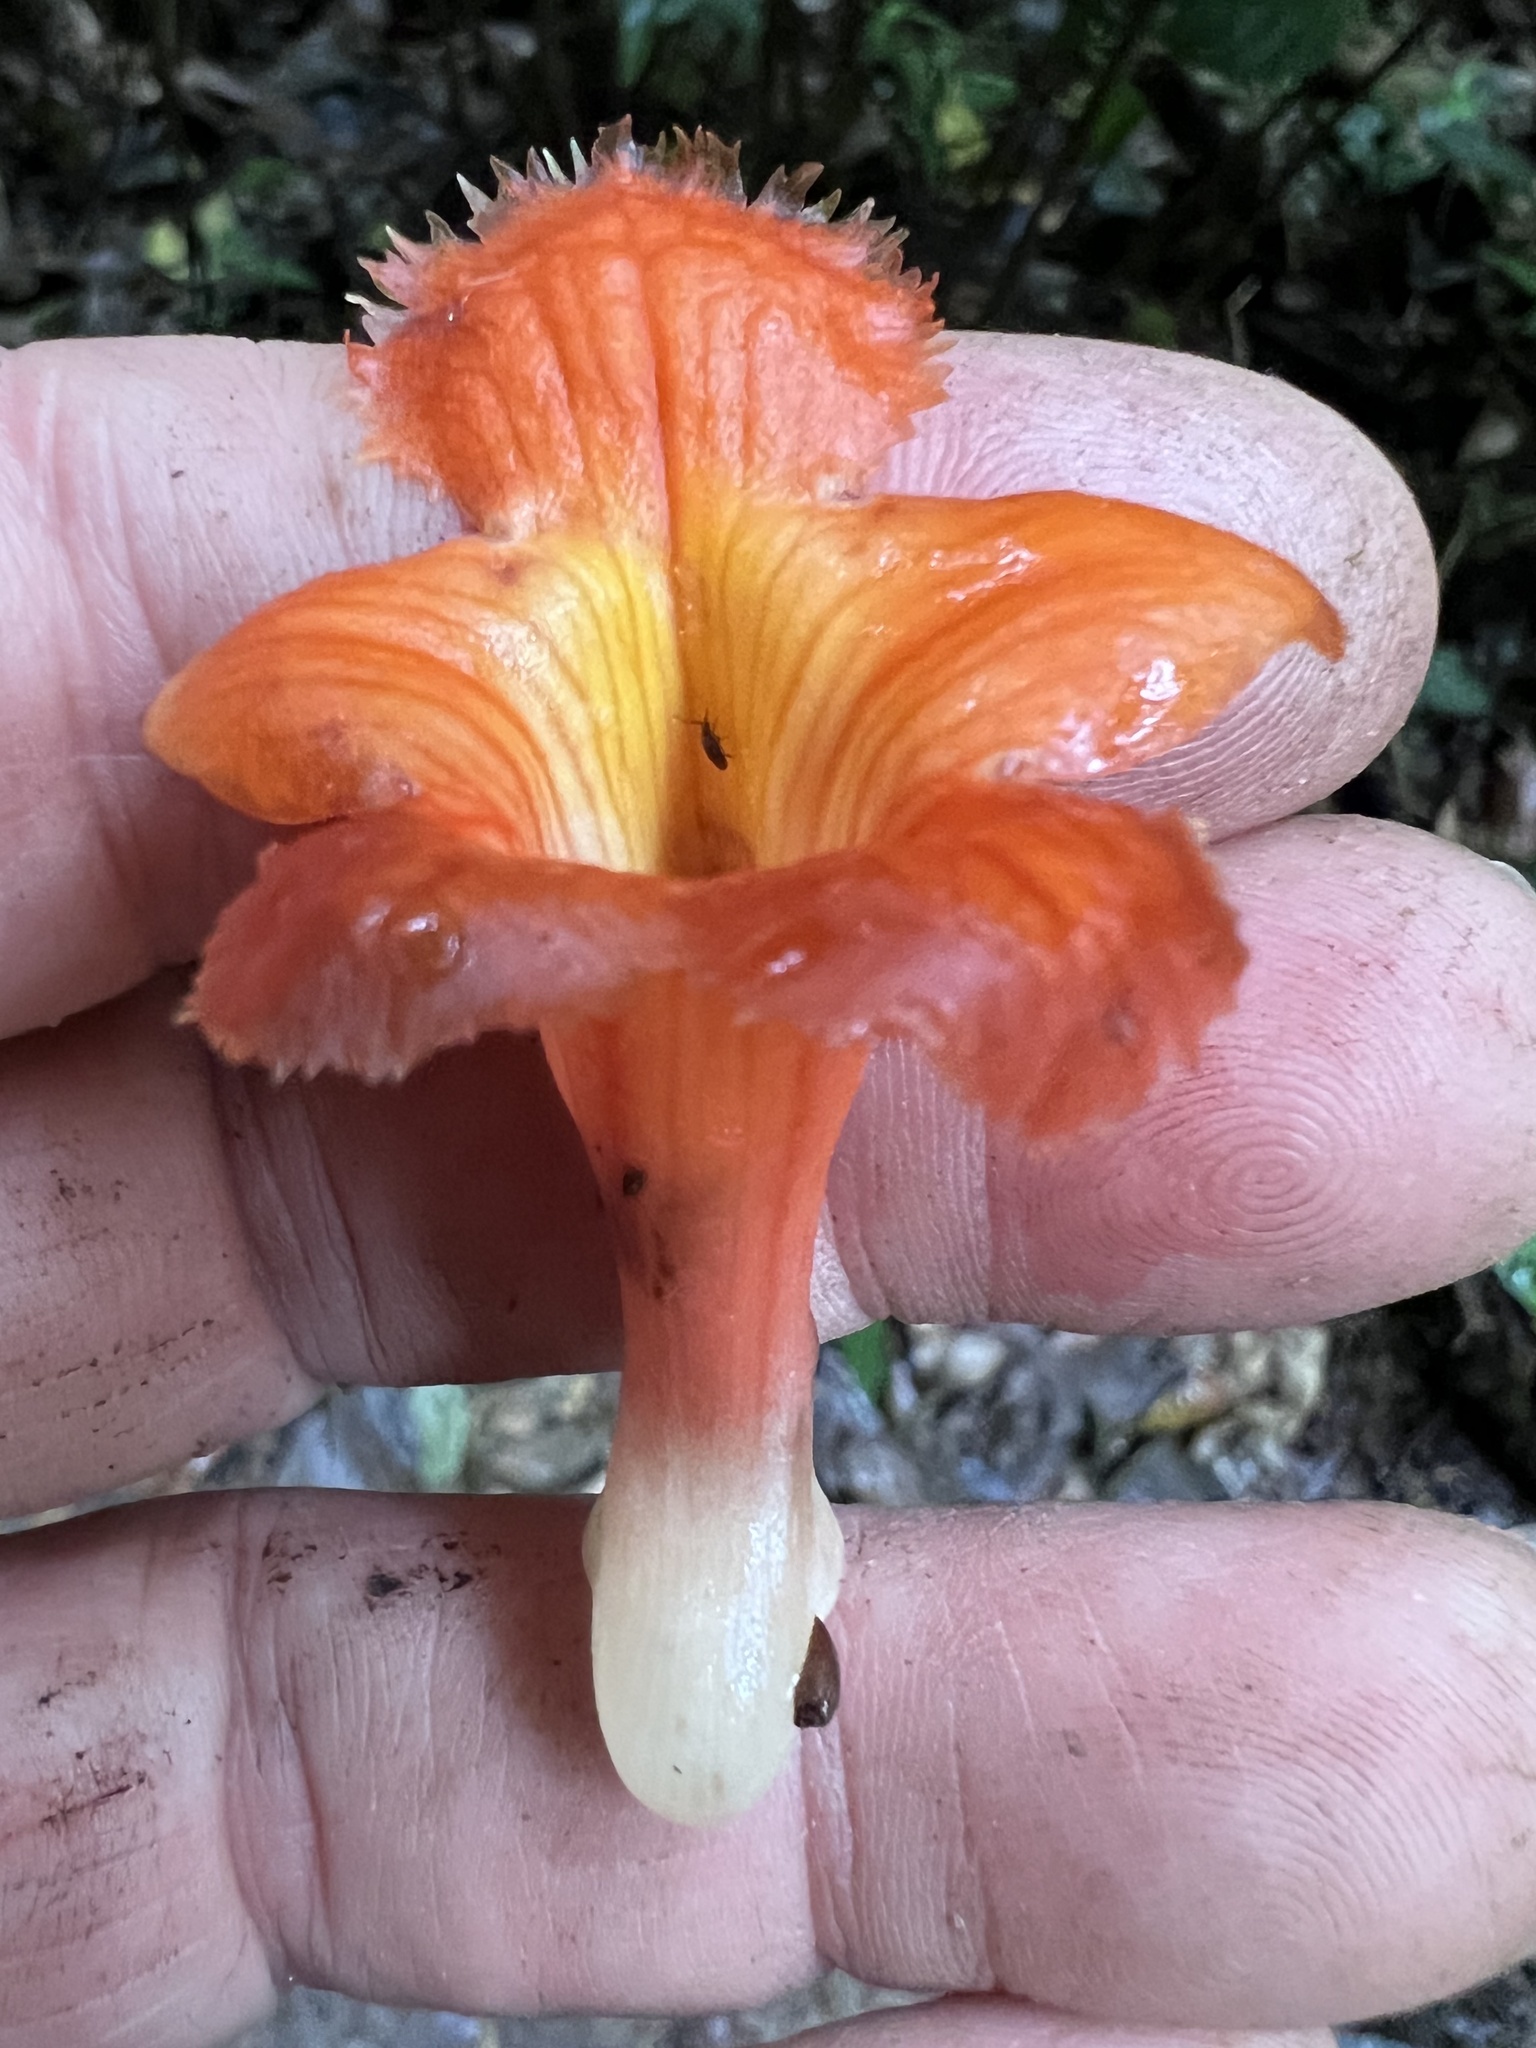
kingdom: Plantae
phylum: Tracheophyta
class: Magnoliopsida
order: Lamiales
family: Gesneriaceae
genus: Drymonia
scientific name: Drymonia rubra
